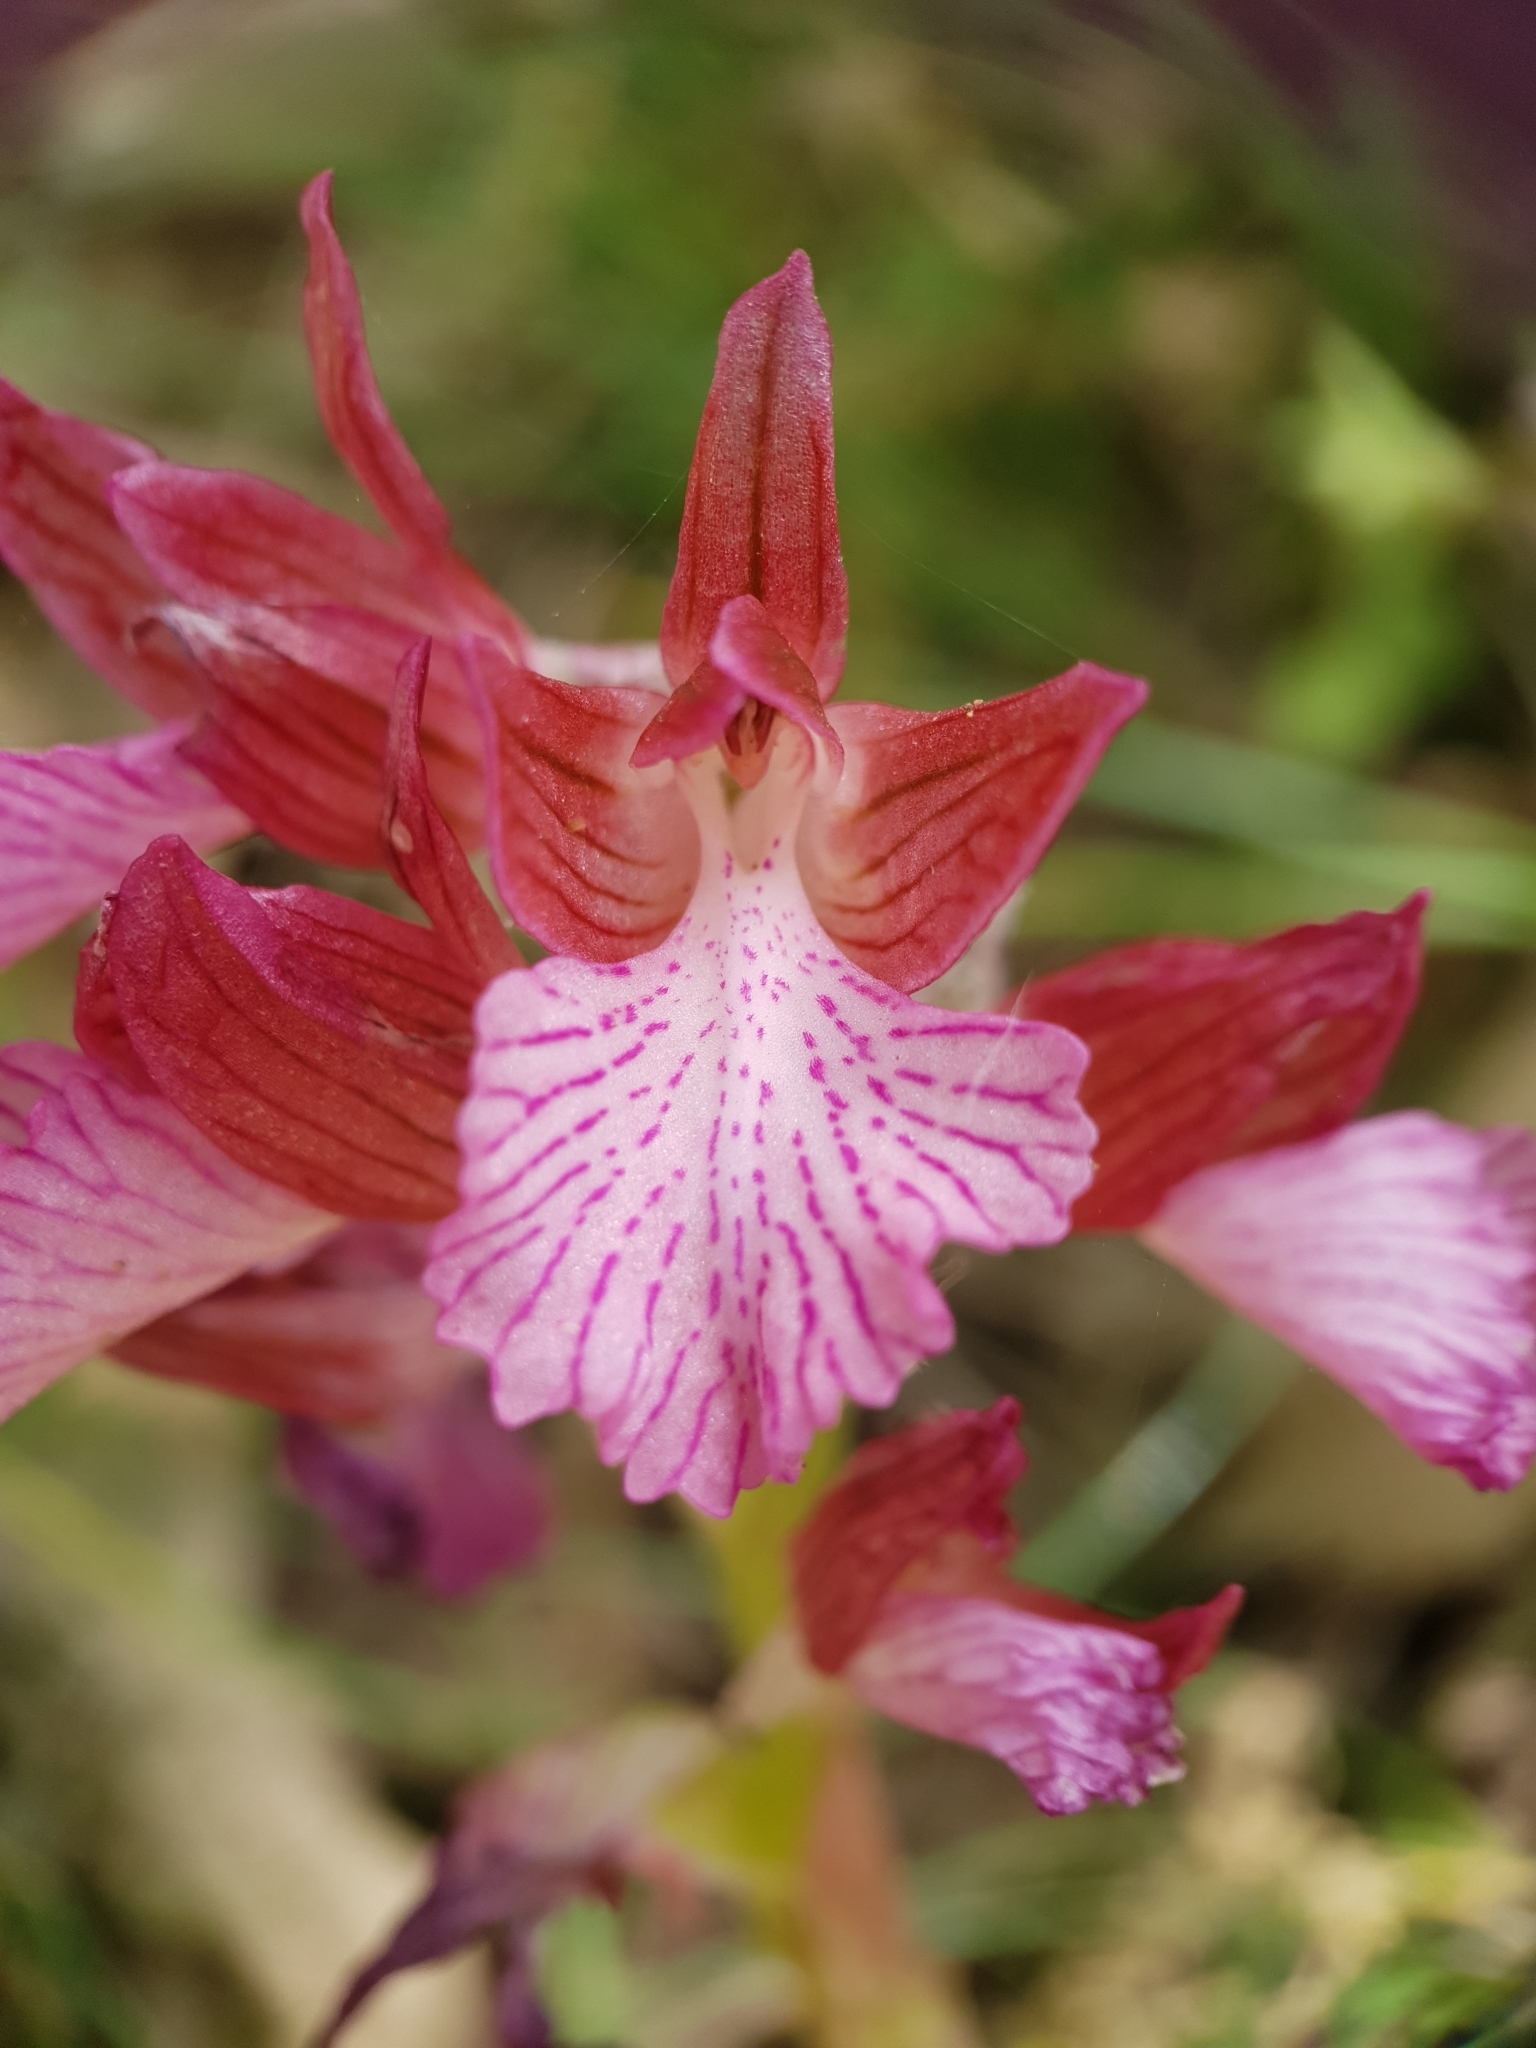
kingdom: Plantae
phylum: Tracheophyta
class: Liliopsida
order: Asparagales
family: Orchidaceae
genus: Anacamptis
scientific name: Anacamptis papilionacea
